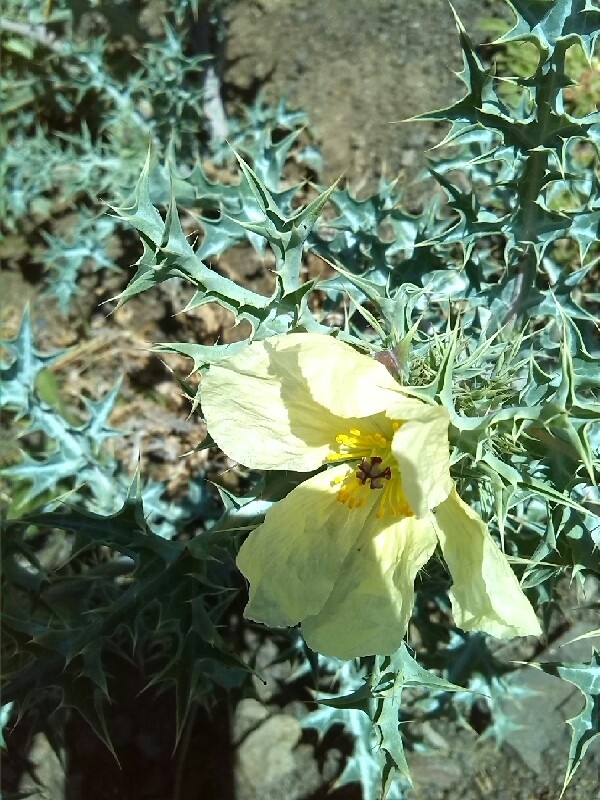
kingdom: Plantae
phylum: Tracheophyta
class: Magnoliopsida
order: Ranunculales
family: Papaveraceae
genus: Argemone
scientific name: Argemone ochroleuca
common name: White-flower mexican-poppy
